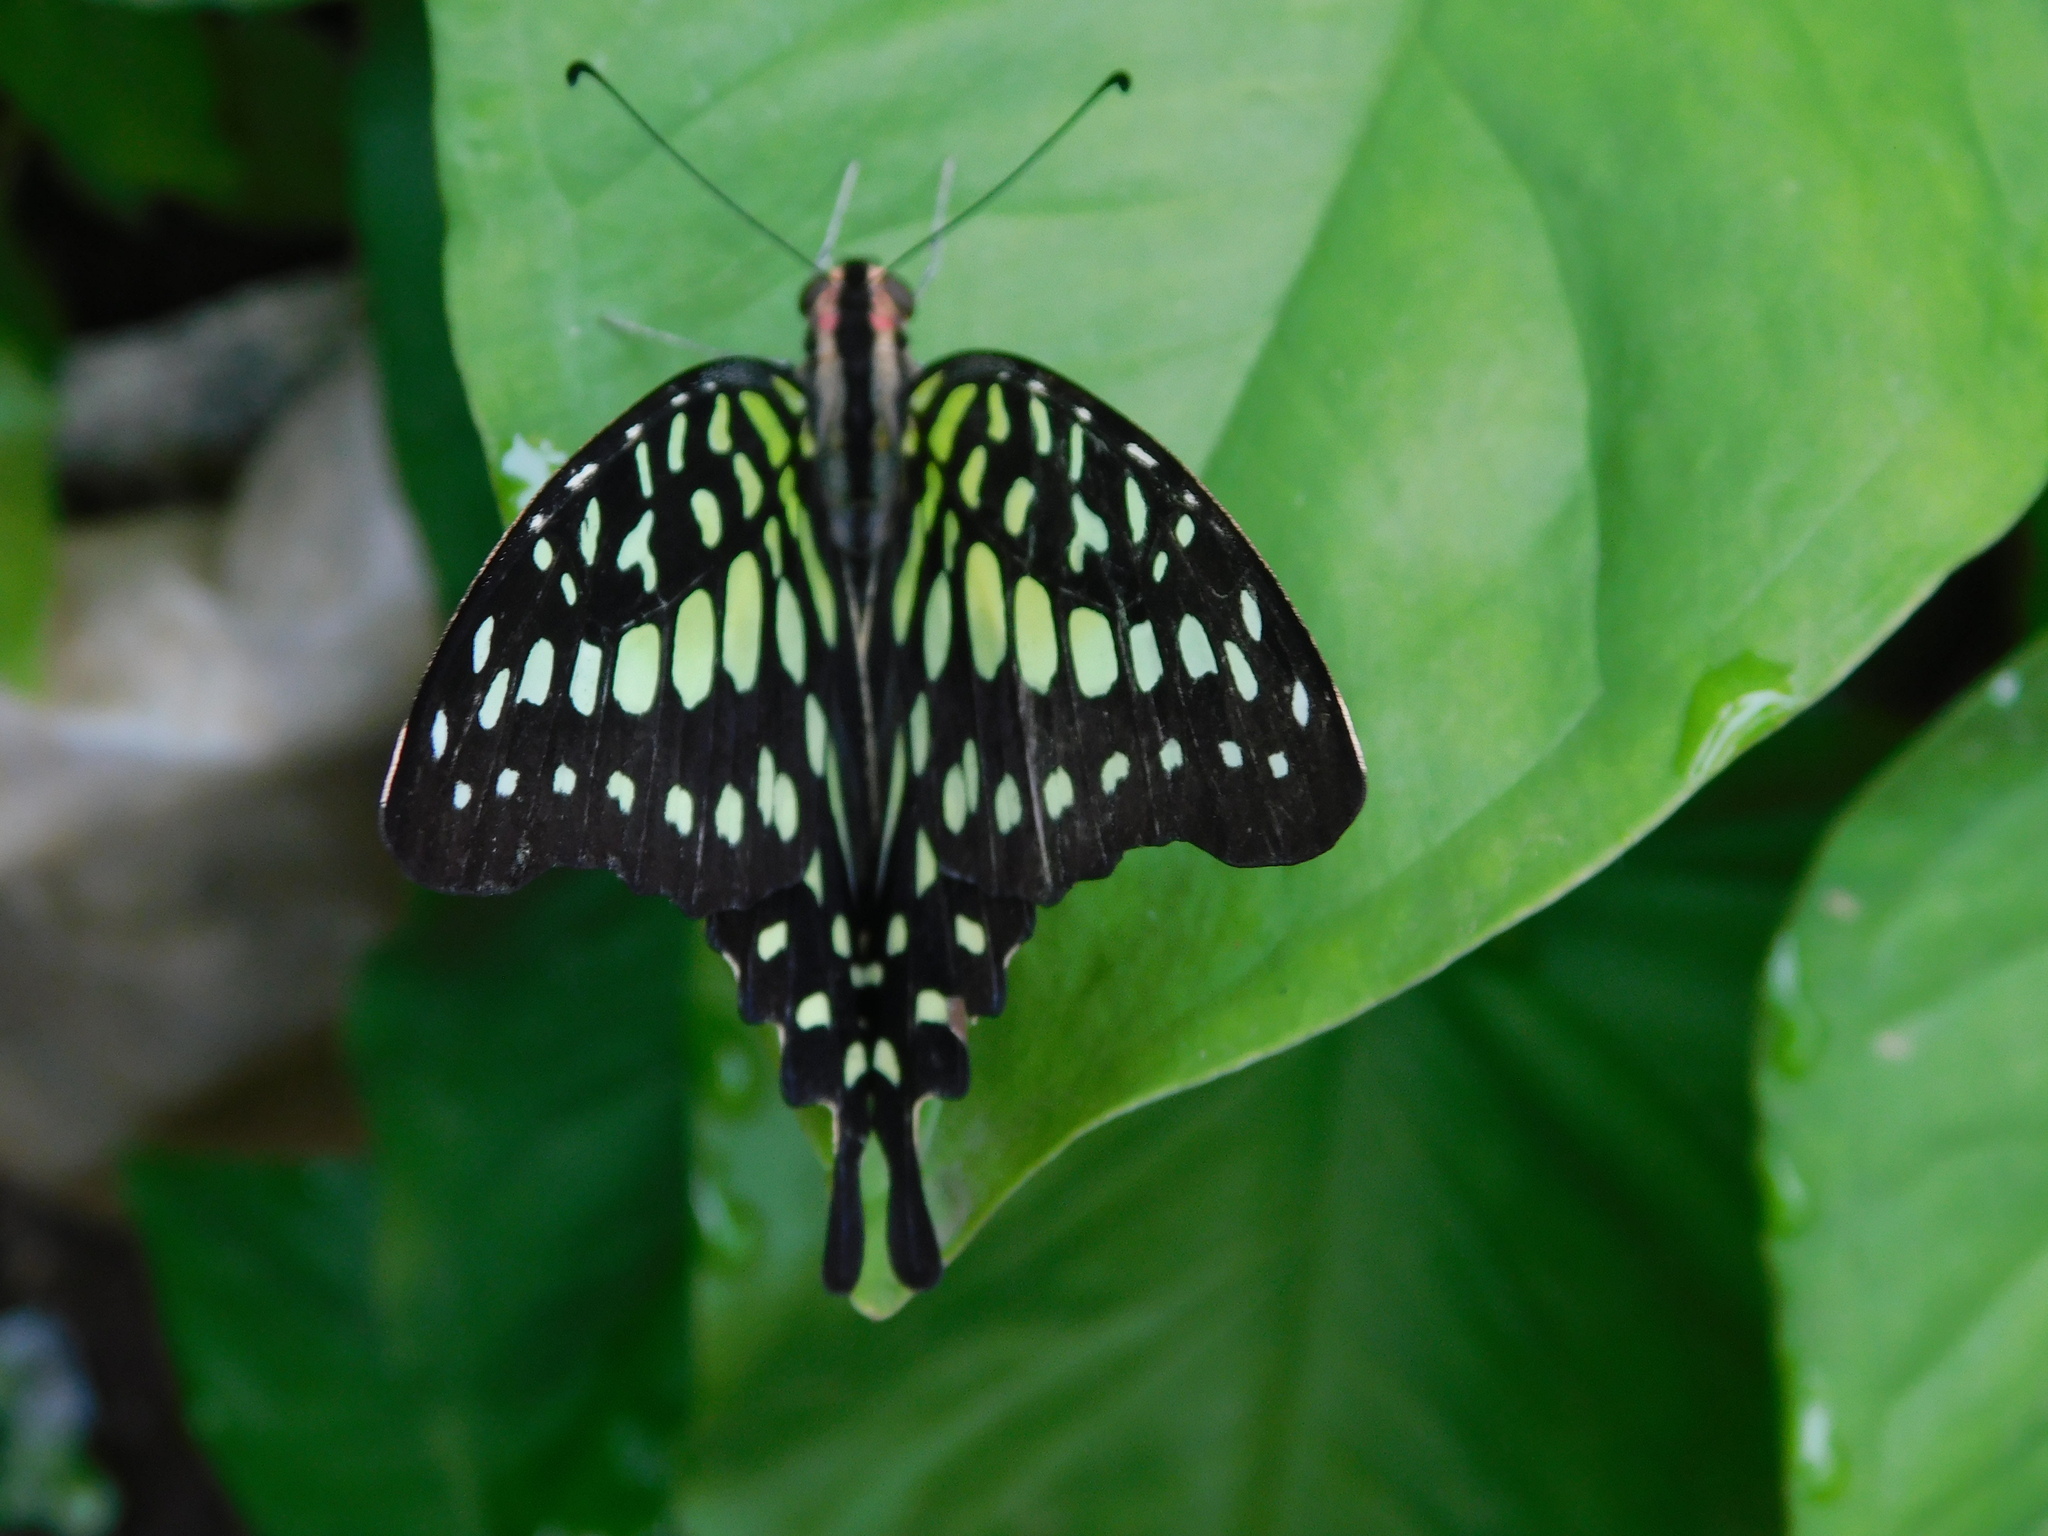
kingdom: Animalia
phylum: Arthropoda
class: Insecta
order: Lepidoptera
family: Papilionidae
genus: Graphium
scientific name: Graphium agamemnon
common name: Tailed jay
